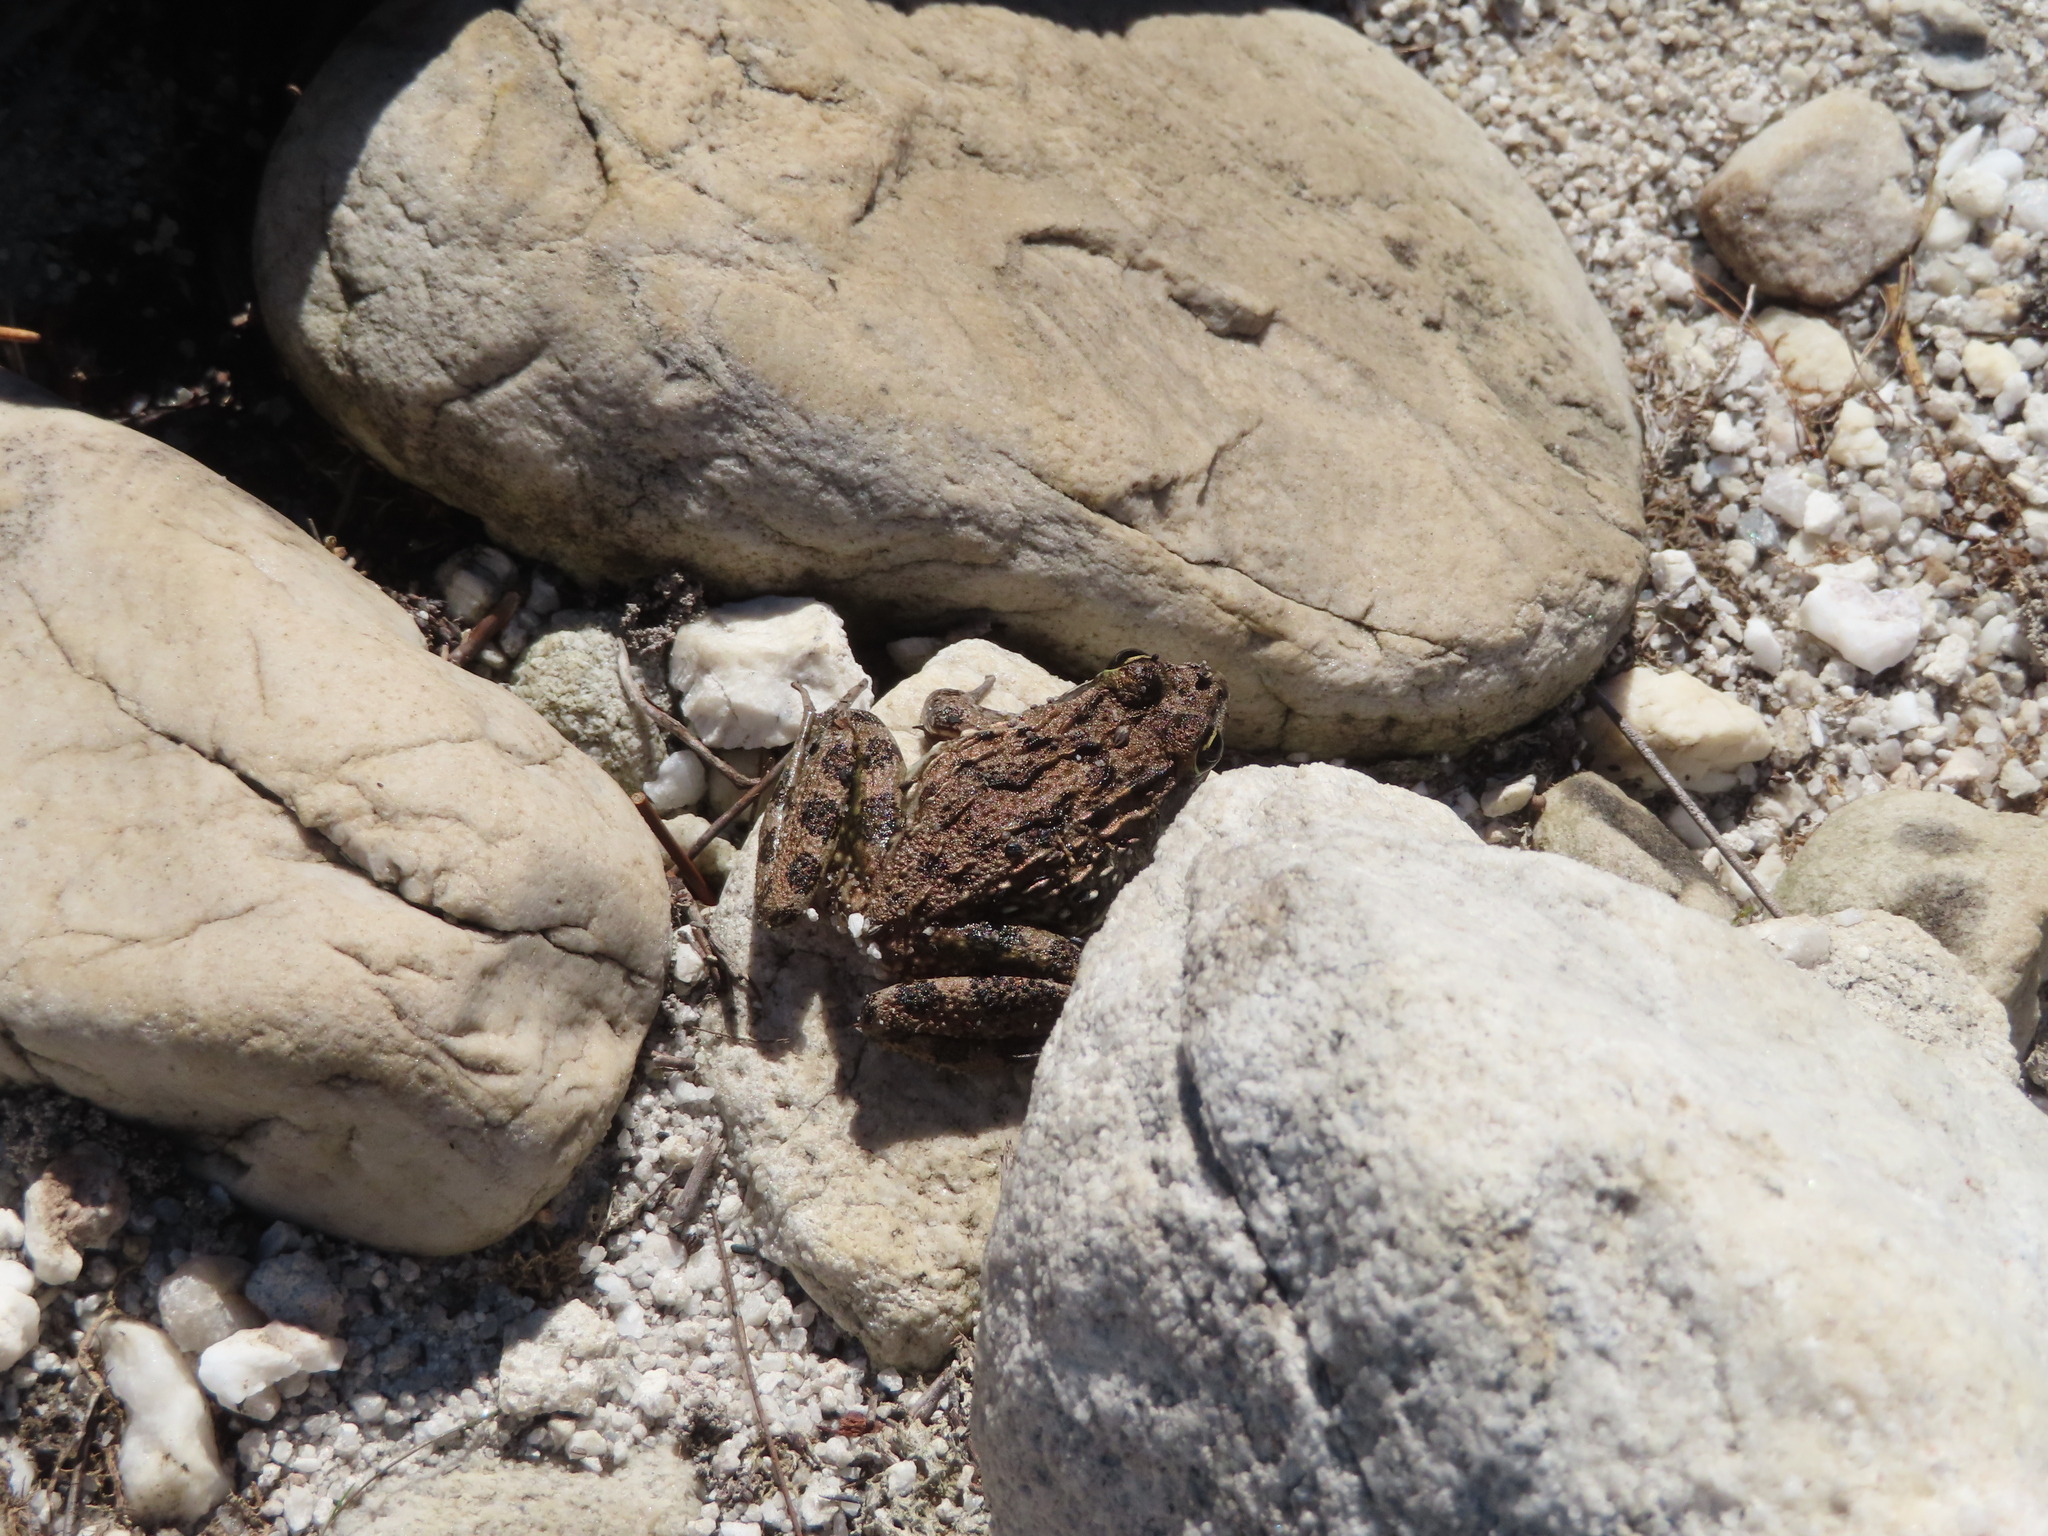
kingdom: Animalia
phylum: Chordata
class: Amphibia
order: Anura
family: Pyxicephalidae
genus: Amietia
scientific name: Amietia fuscigula
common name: Cape rana
